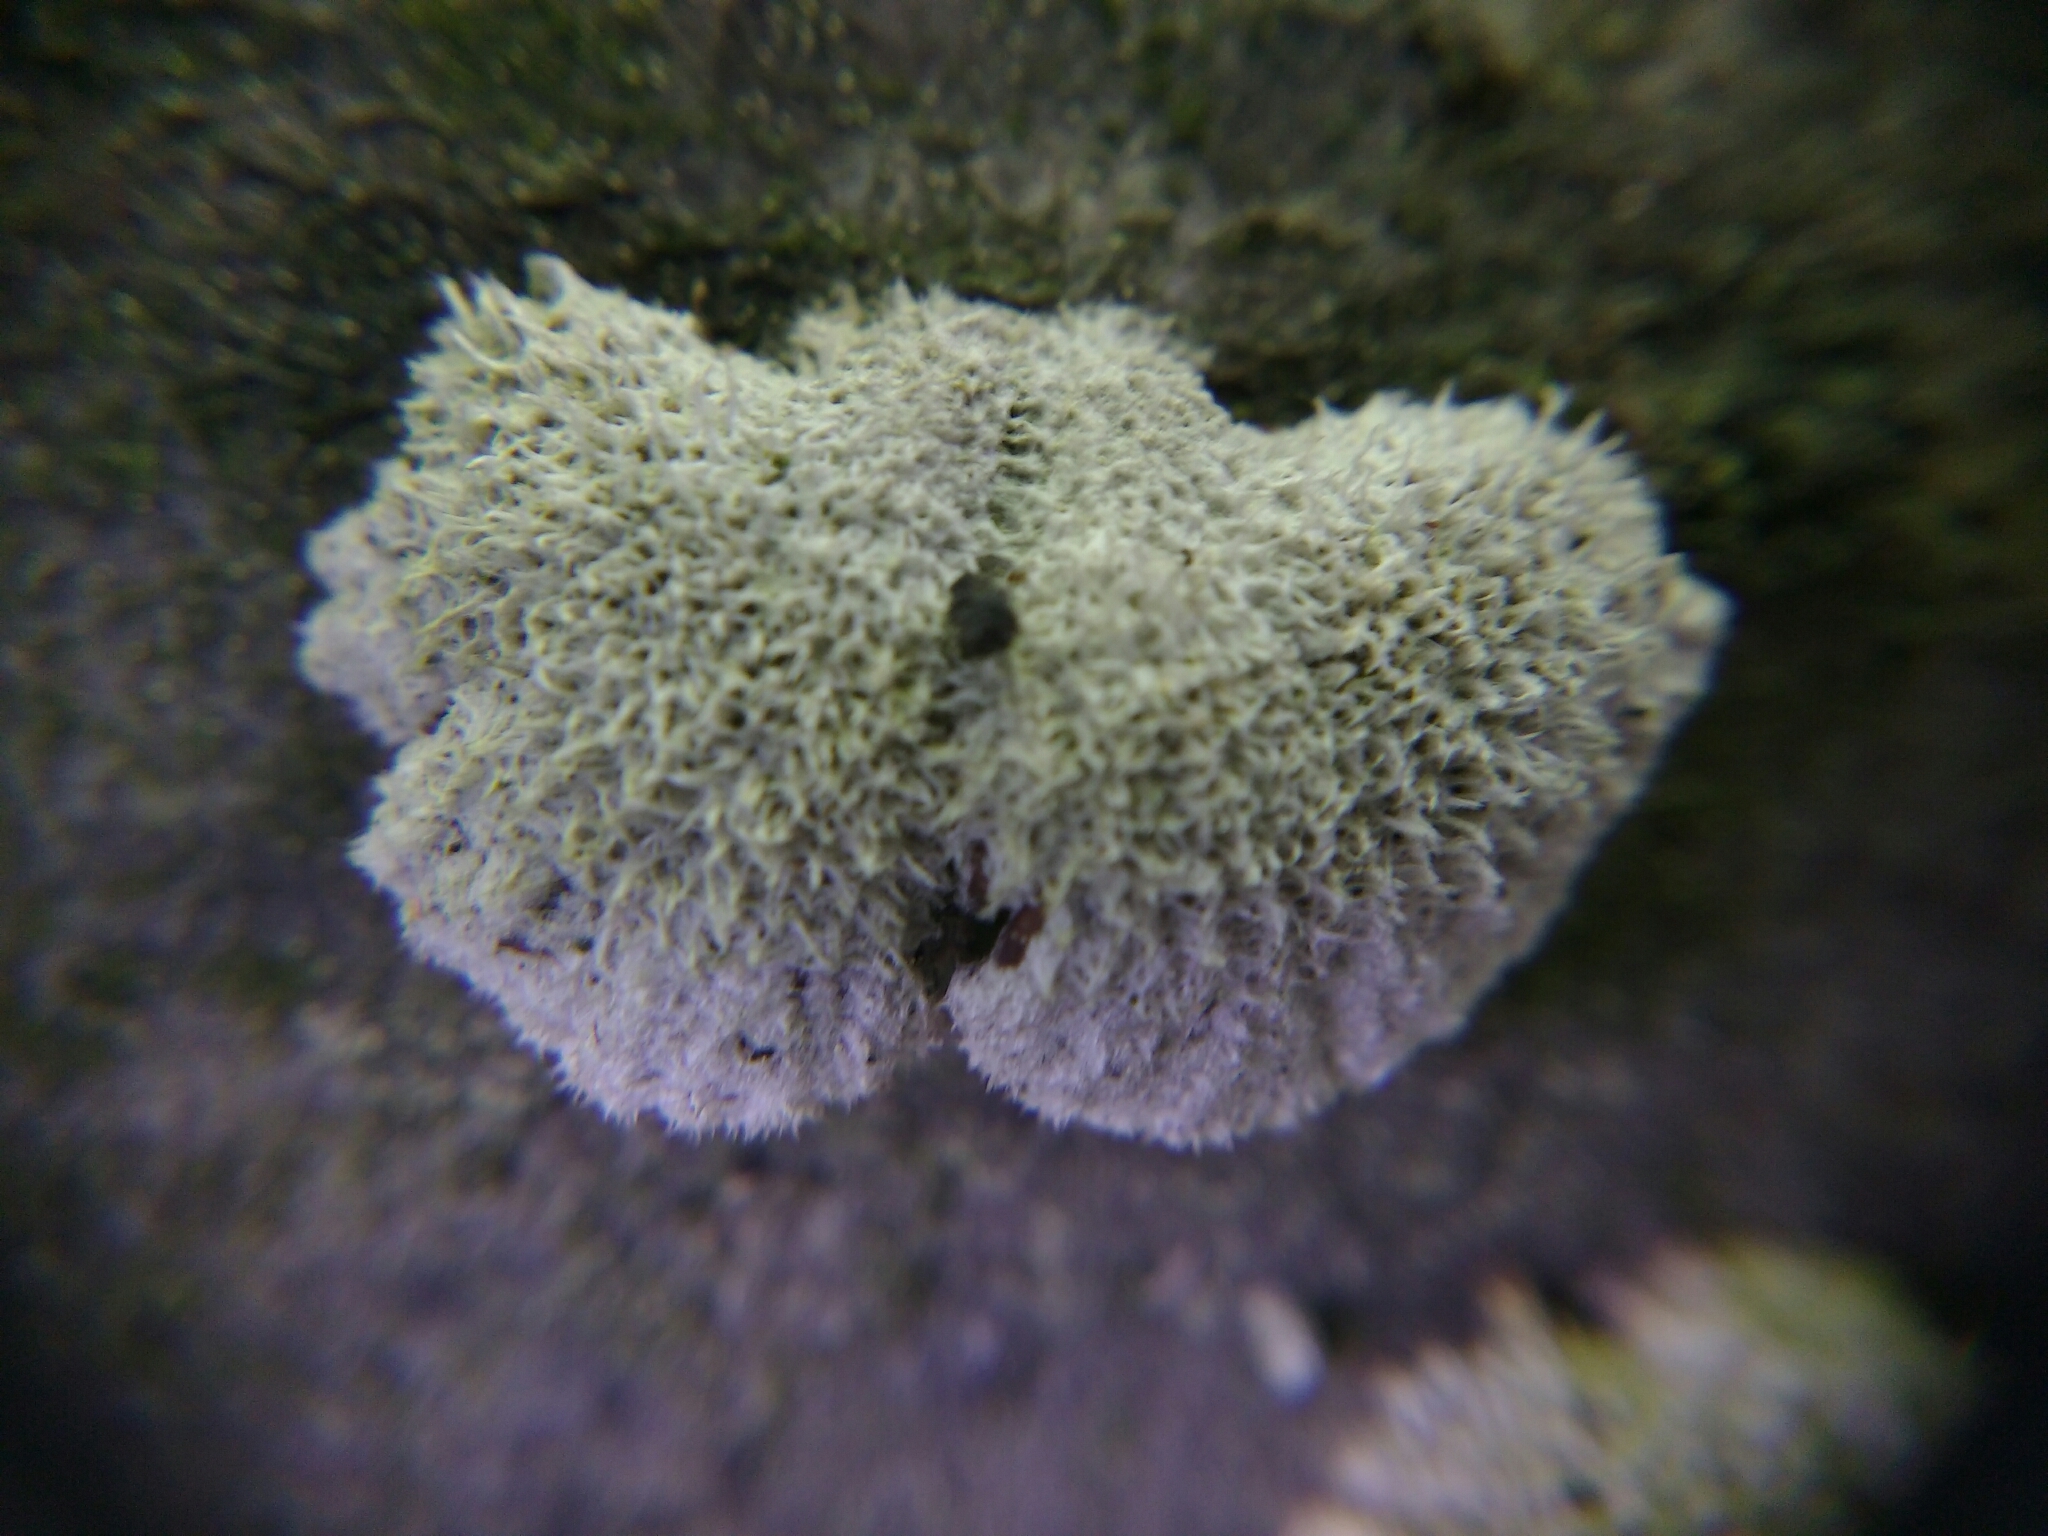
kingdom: Fungi
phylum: Basidiomycota
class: Agaricomycetes
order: Agaricales
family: Schizophyllaceae
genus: Schizophyllum
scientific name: Schizophyllum commune
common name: Common porecrust
